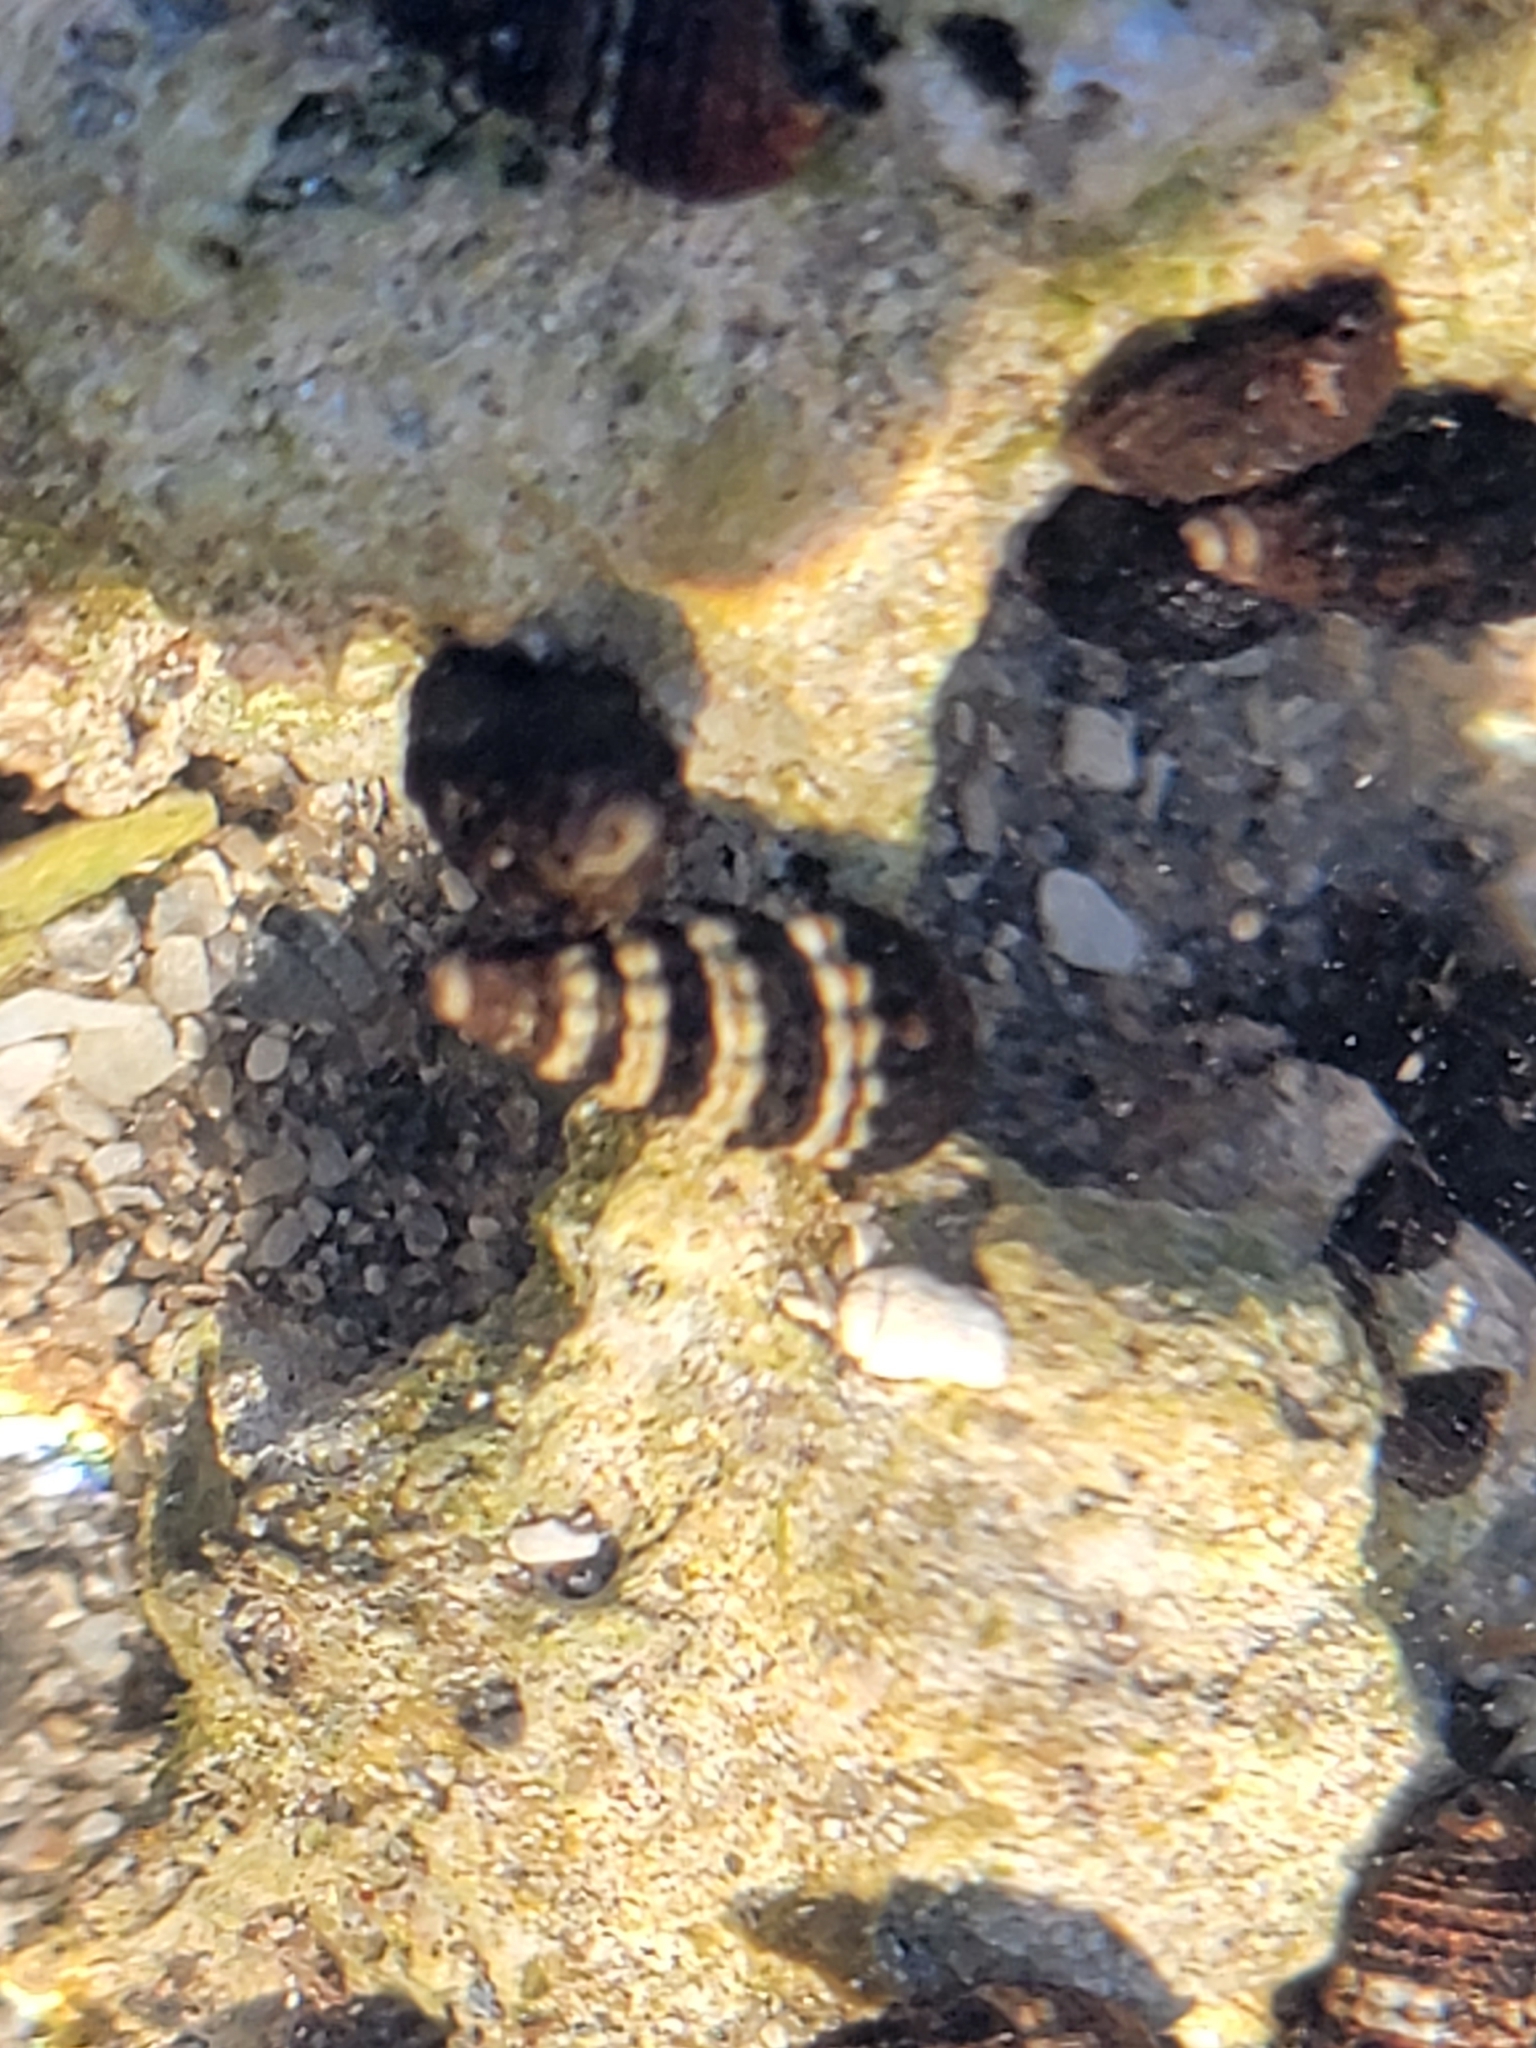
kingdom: Animalia
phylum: Mollusca
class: Gastropoda
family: Batillariidae
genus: Lampanella
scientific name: Lampanella minima
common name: West indian false cerith
